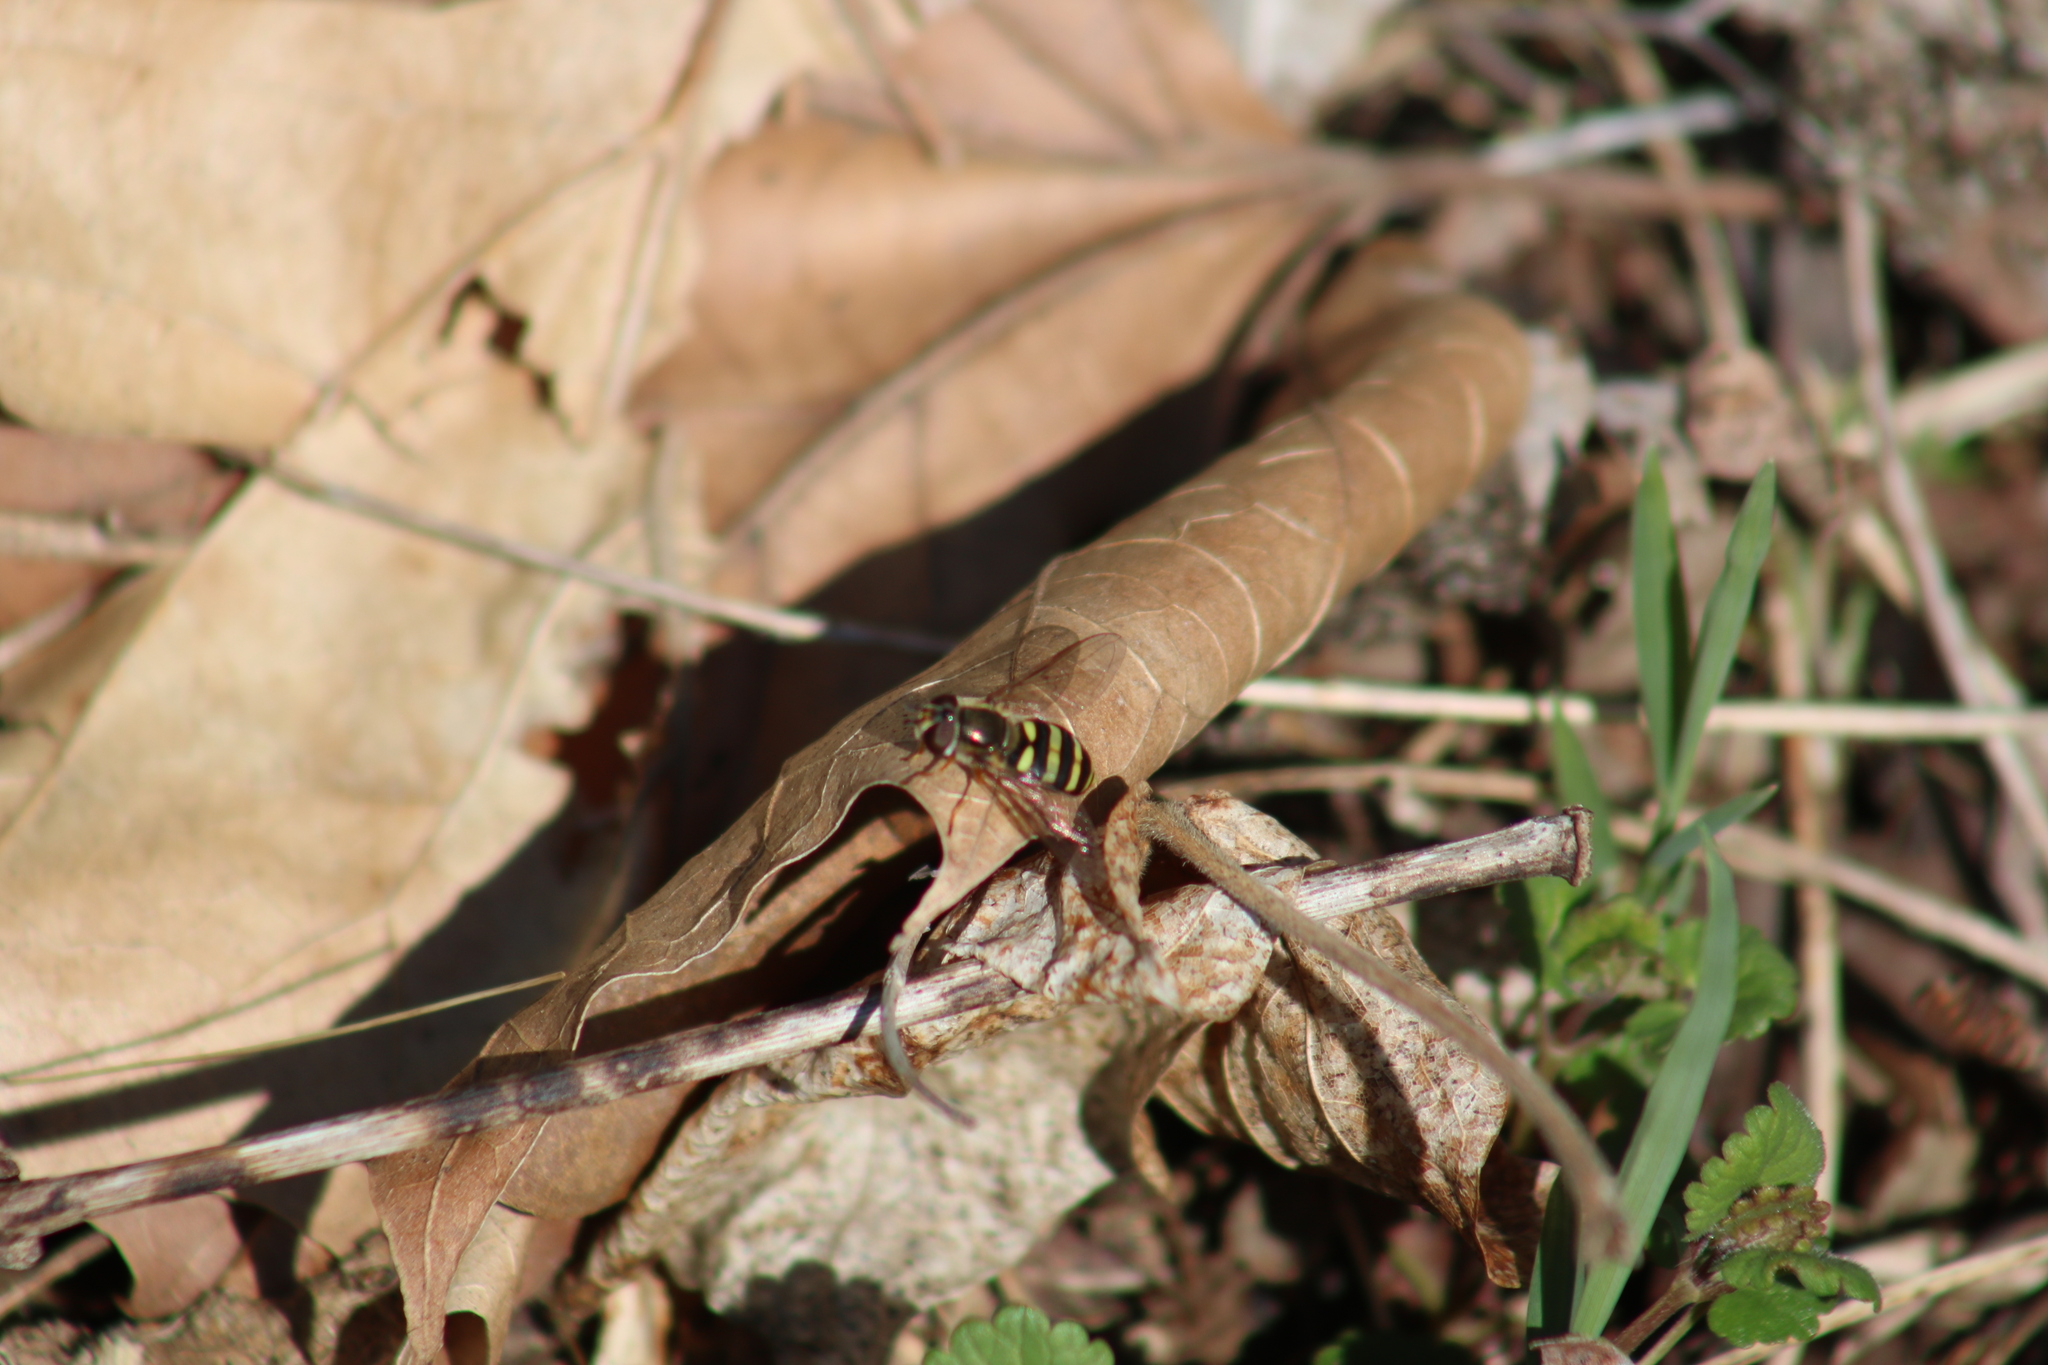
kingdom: Animalia
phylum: Arthropoda
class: Insecta
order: Diptera
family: Syrphidae
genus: Eupeodes
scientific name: Eupeodes
